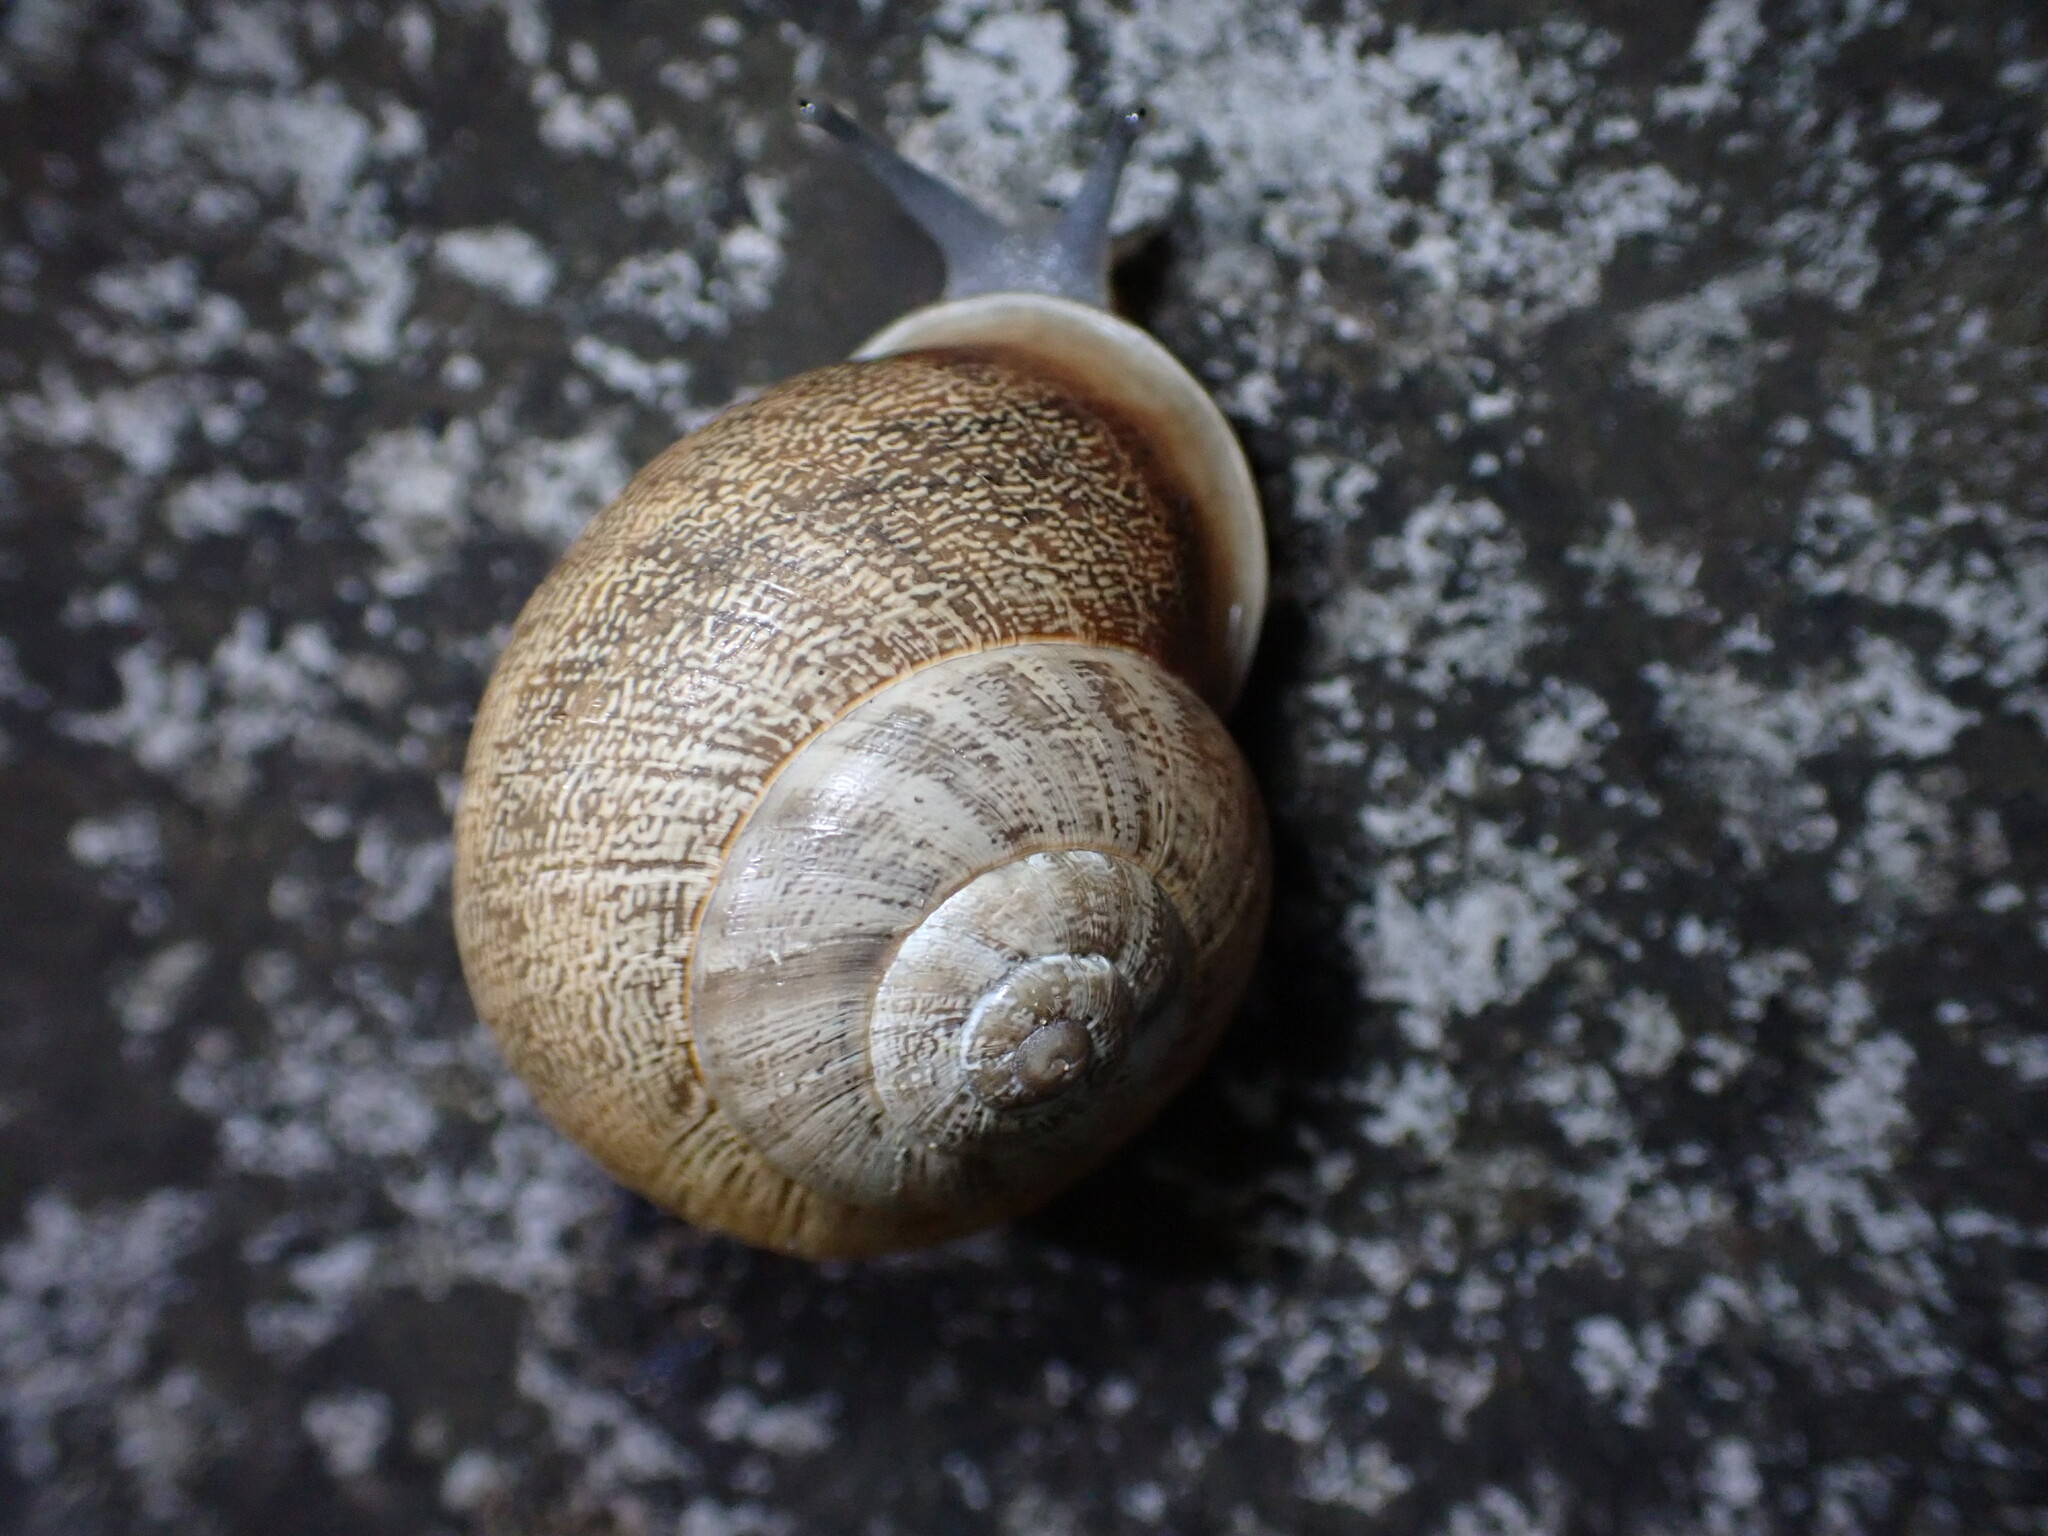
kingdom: Animalia
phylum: Mollusca
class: Gastropoda
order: Stylommatophora
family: Helicidae
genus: Eobania
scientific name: Eobania vermiculata
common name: Chocolateband snail
